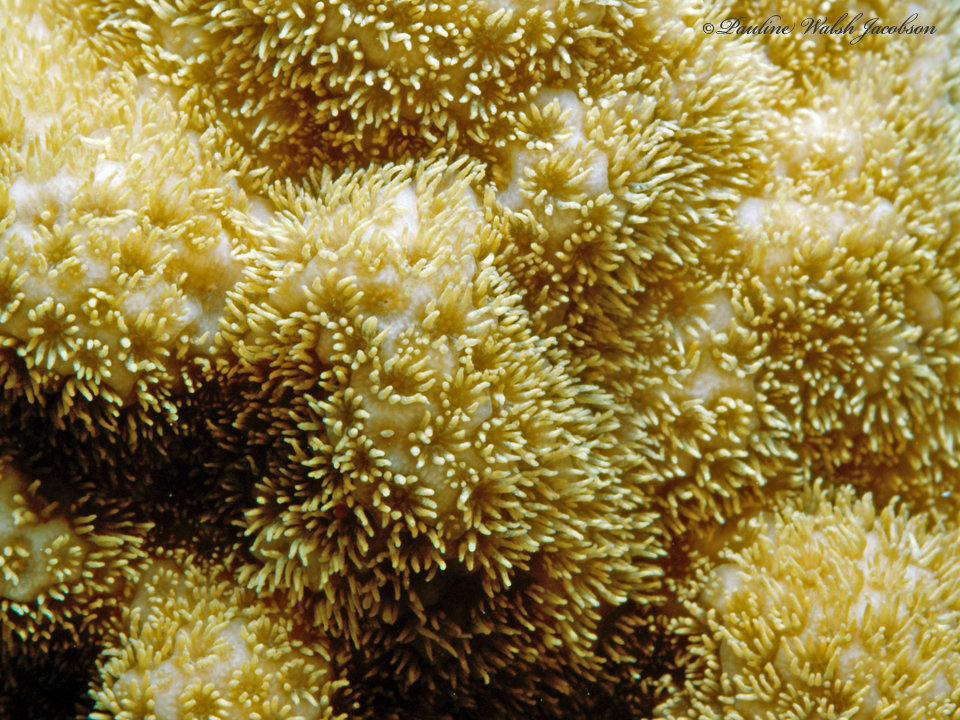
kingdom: Animalia
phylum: Cnidaria
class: Anthozoa
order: Scleractinia
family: Poritidae
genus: Porites
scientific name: Porites astreoides
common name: Mustard hill coral
